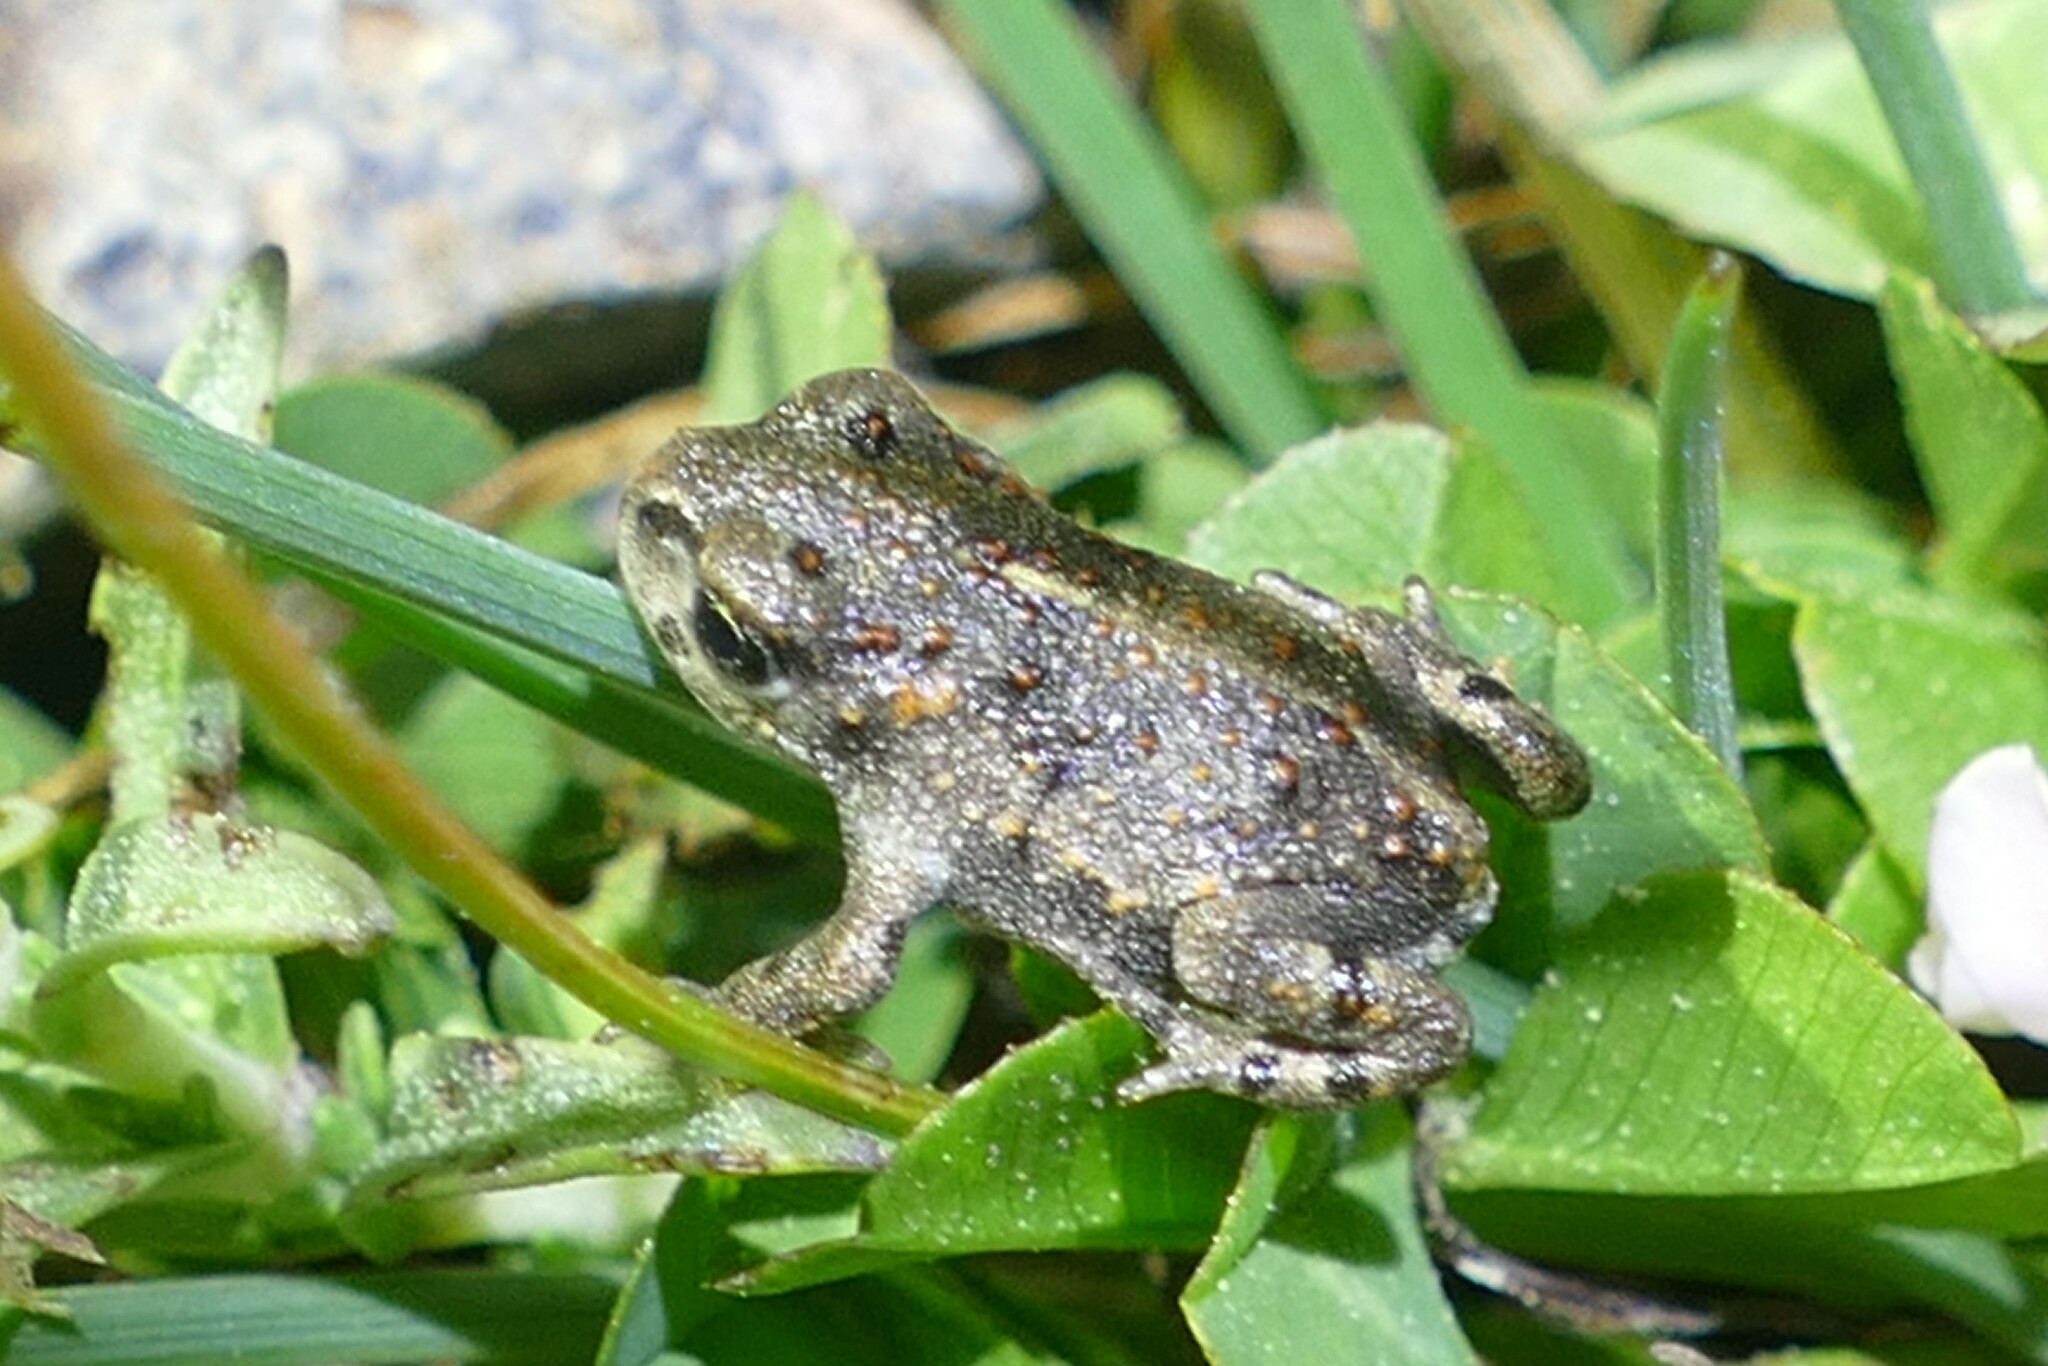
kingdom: Animalia
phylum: Chordata
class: Amphibia
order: Anura
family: Bufonidae
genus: Epidalea
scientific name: Epidalea calamita
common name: Natterjack toad
